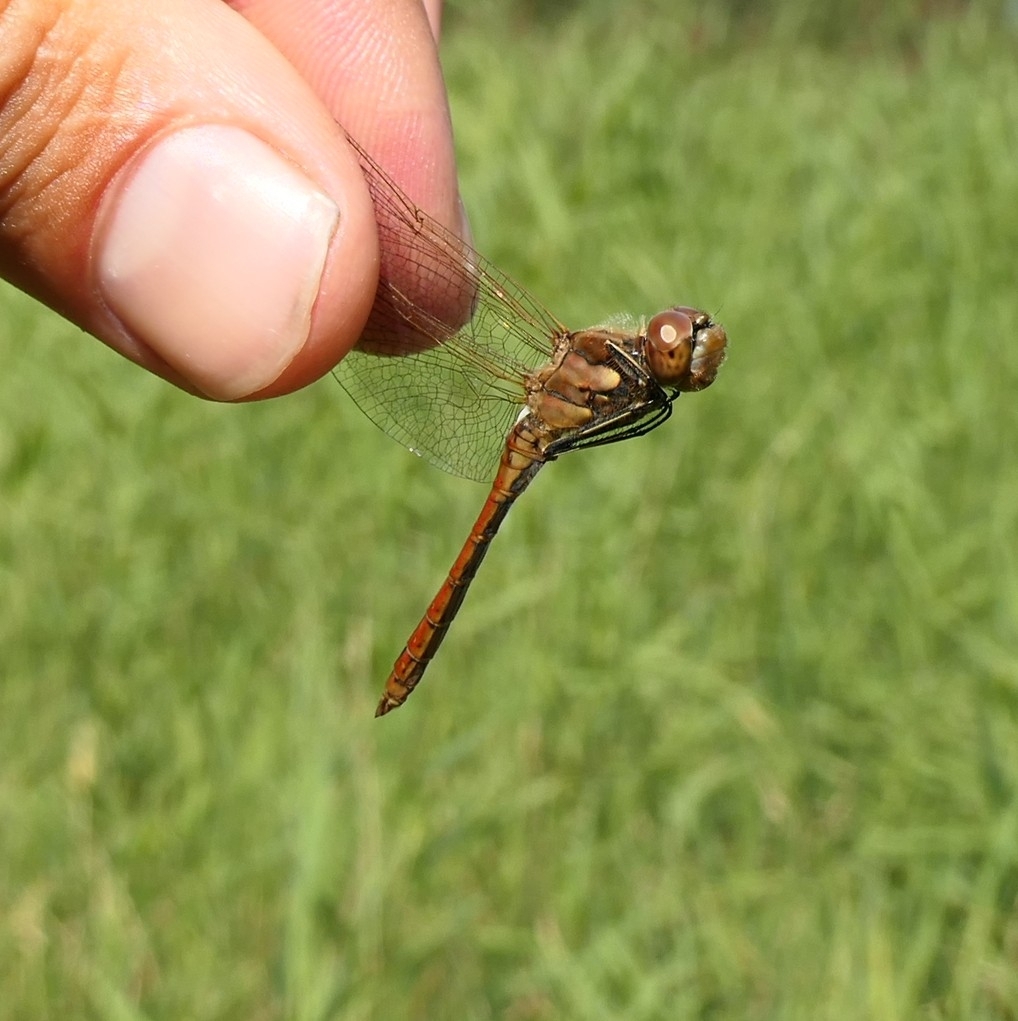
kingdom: Animalia
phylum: Arthropoda
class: Insecta
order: Odonata
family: Libellulidae
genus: Sympetrum
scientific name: Sympetrum vulgatum
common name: Vagrant darter
